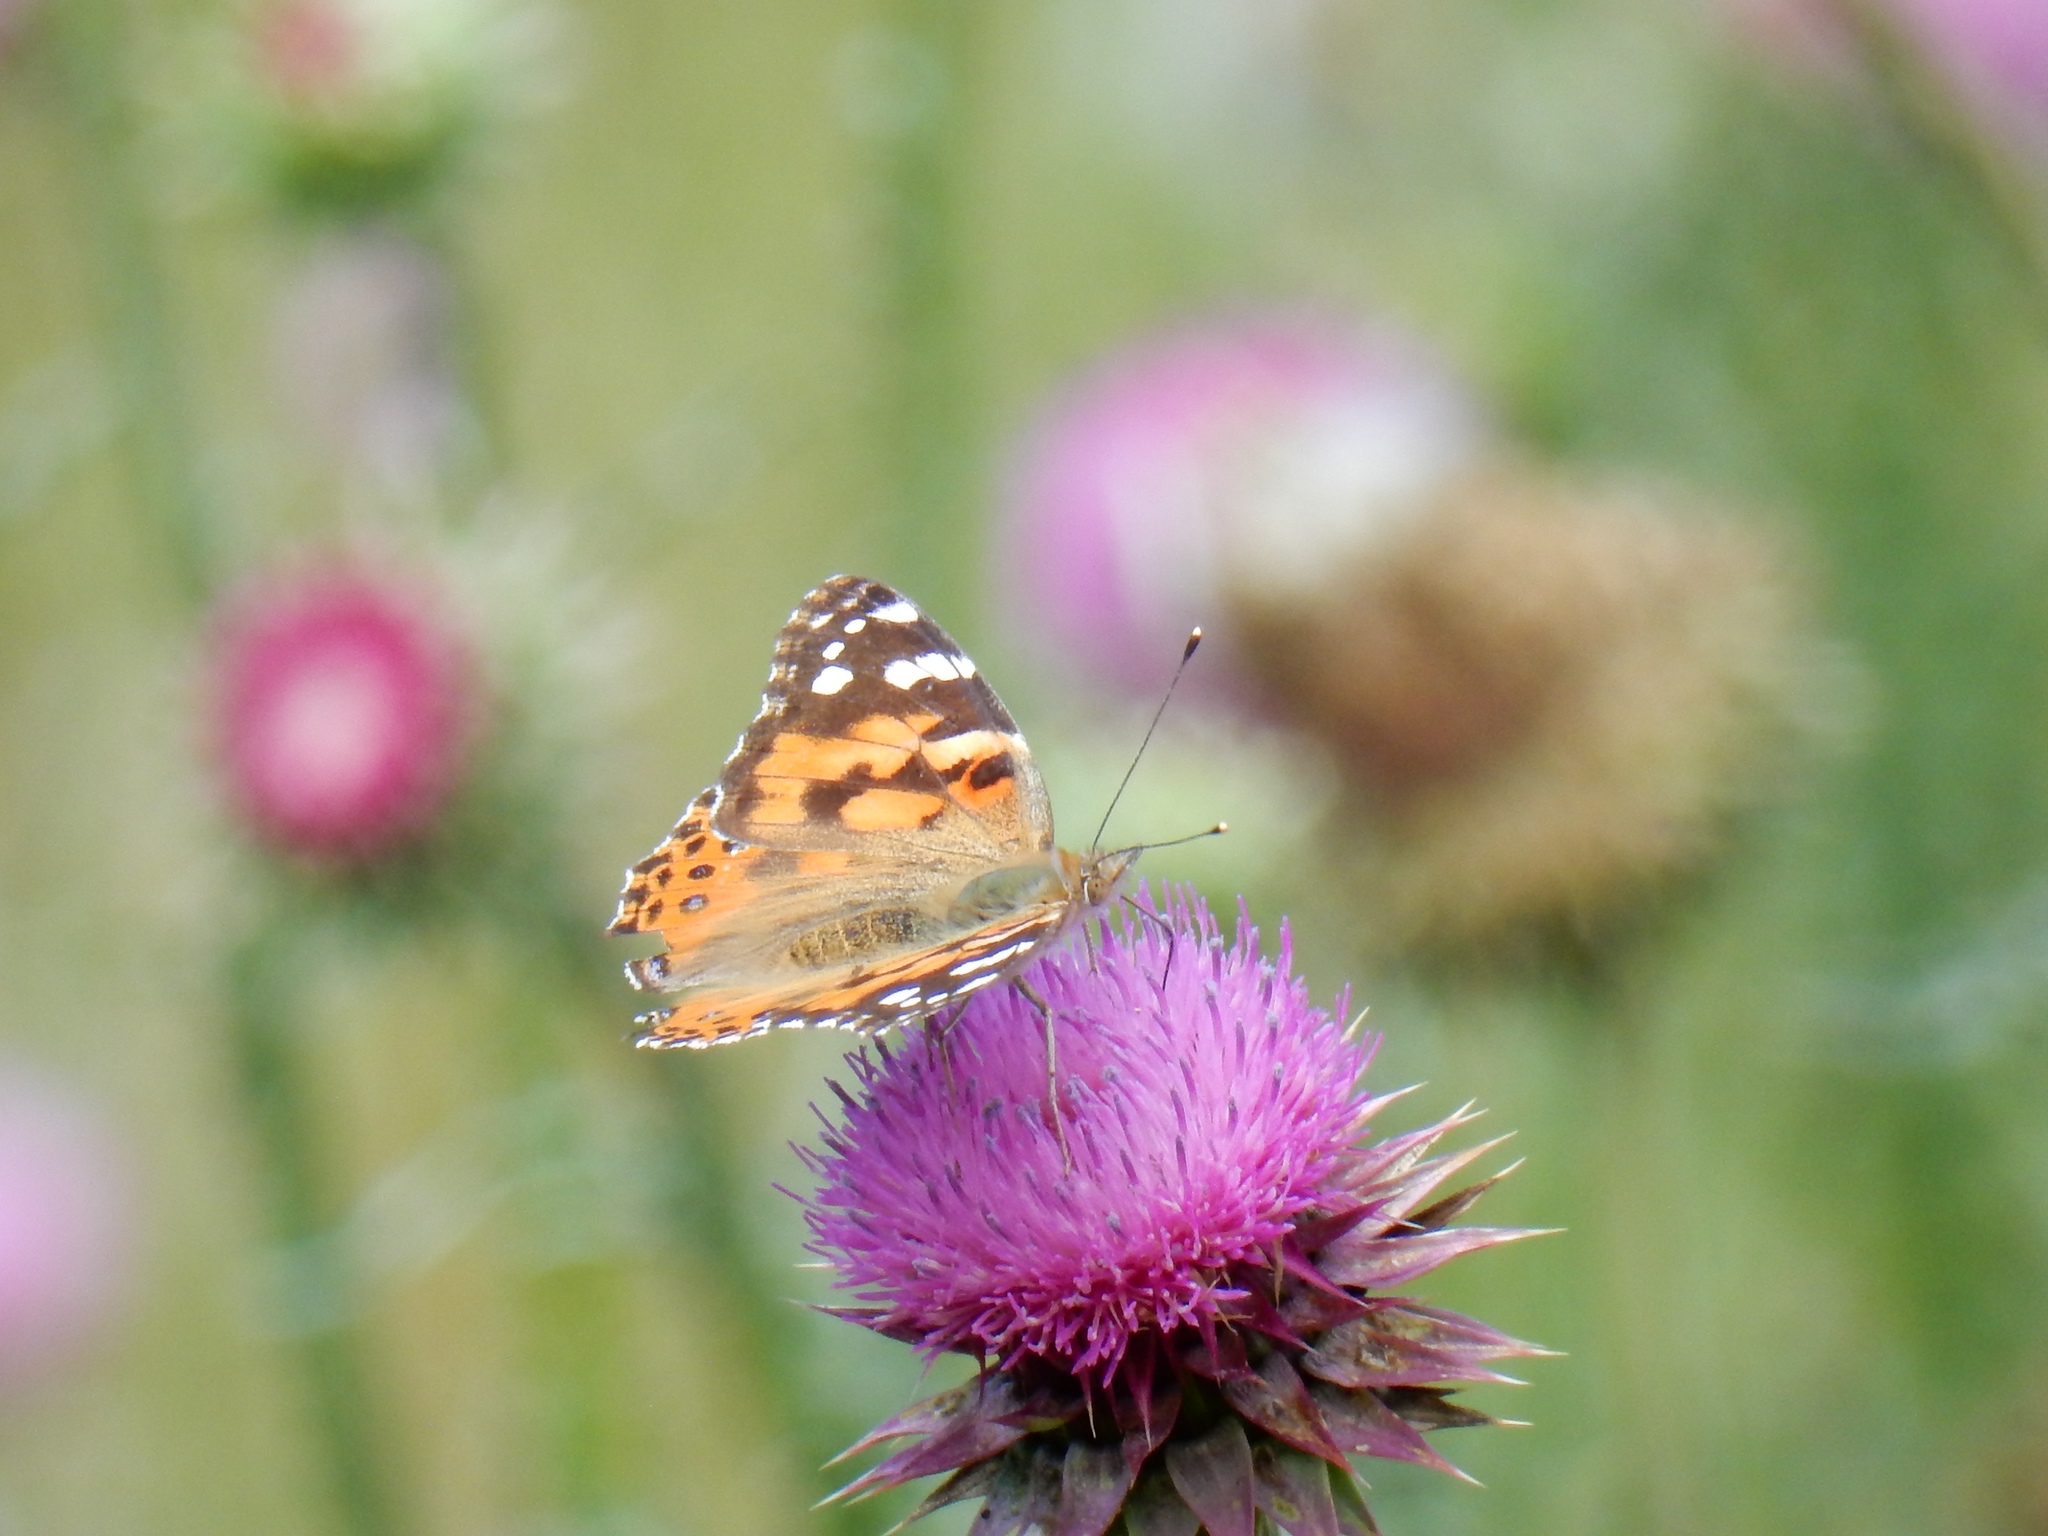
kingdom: Animalia
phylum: Arthropoda
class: Insecta
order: Lepidoptera
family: Nymphalidae
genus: Vanessa
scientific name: Vanessa cardui
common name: Painted lady
